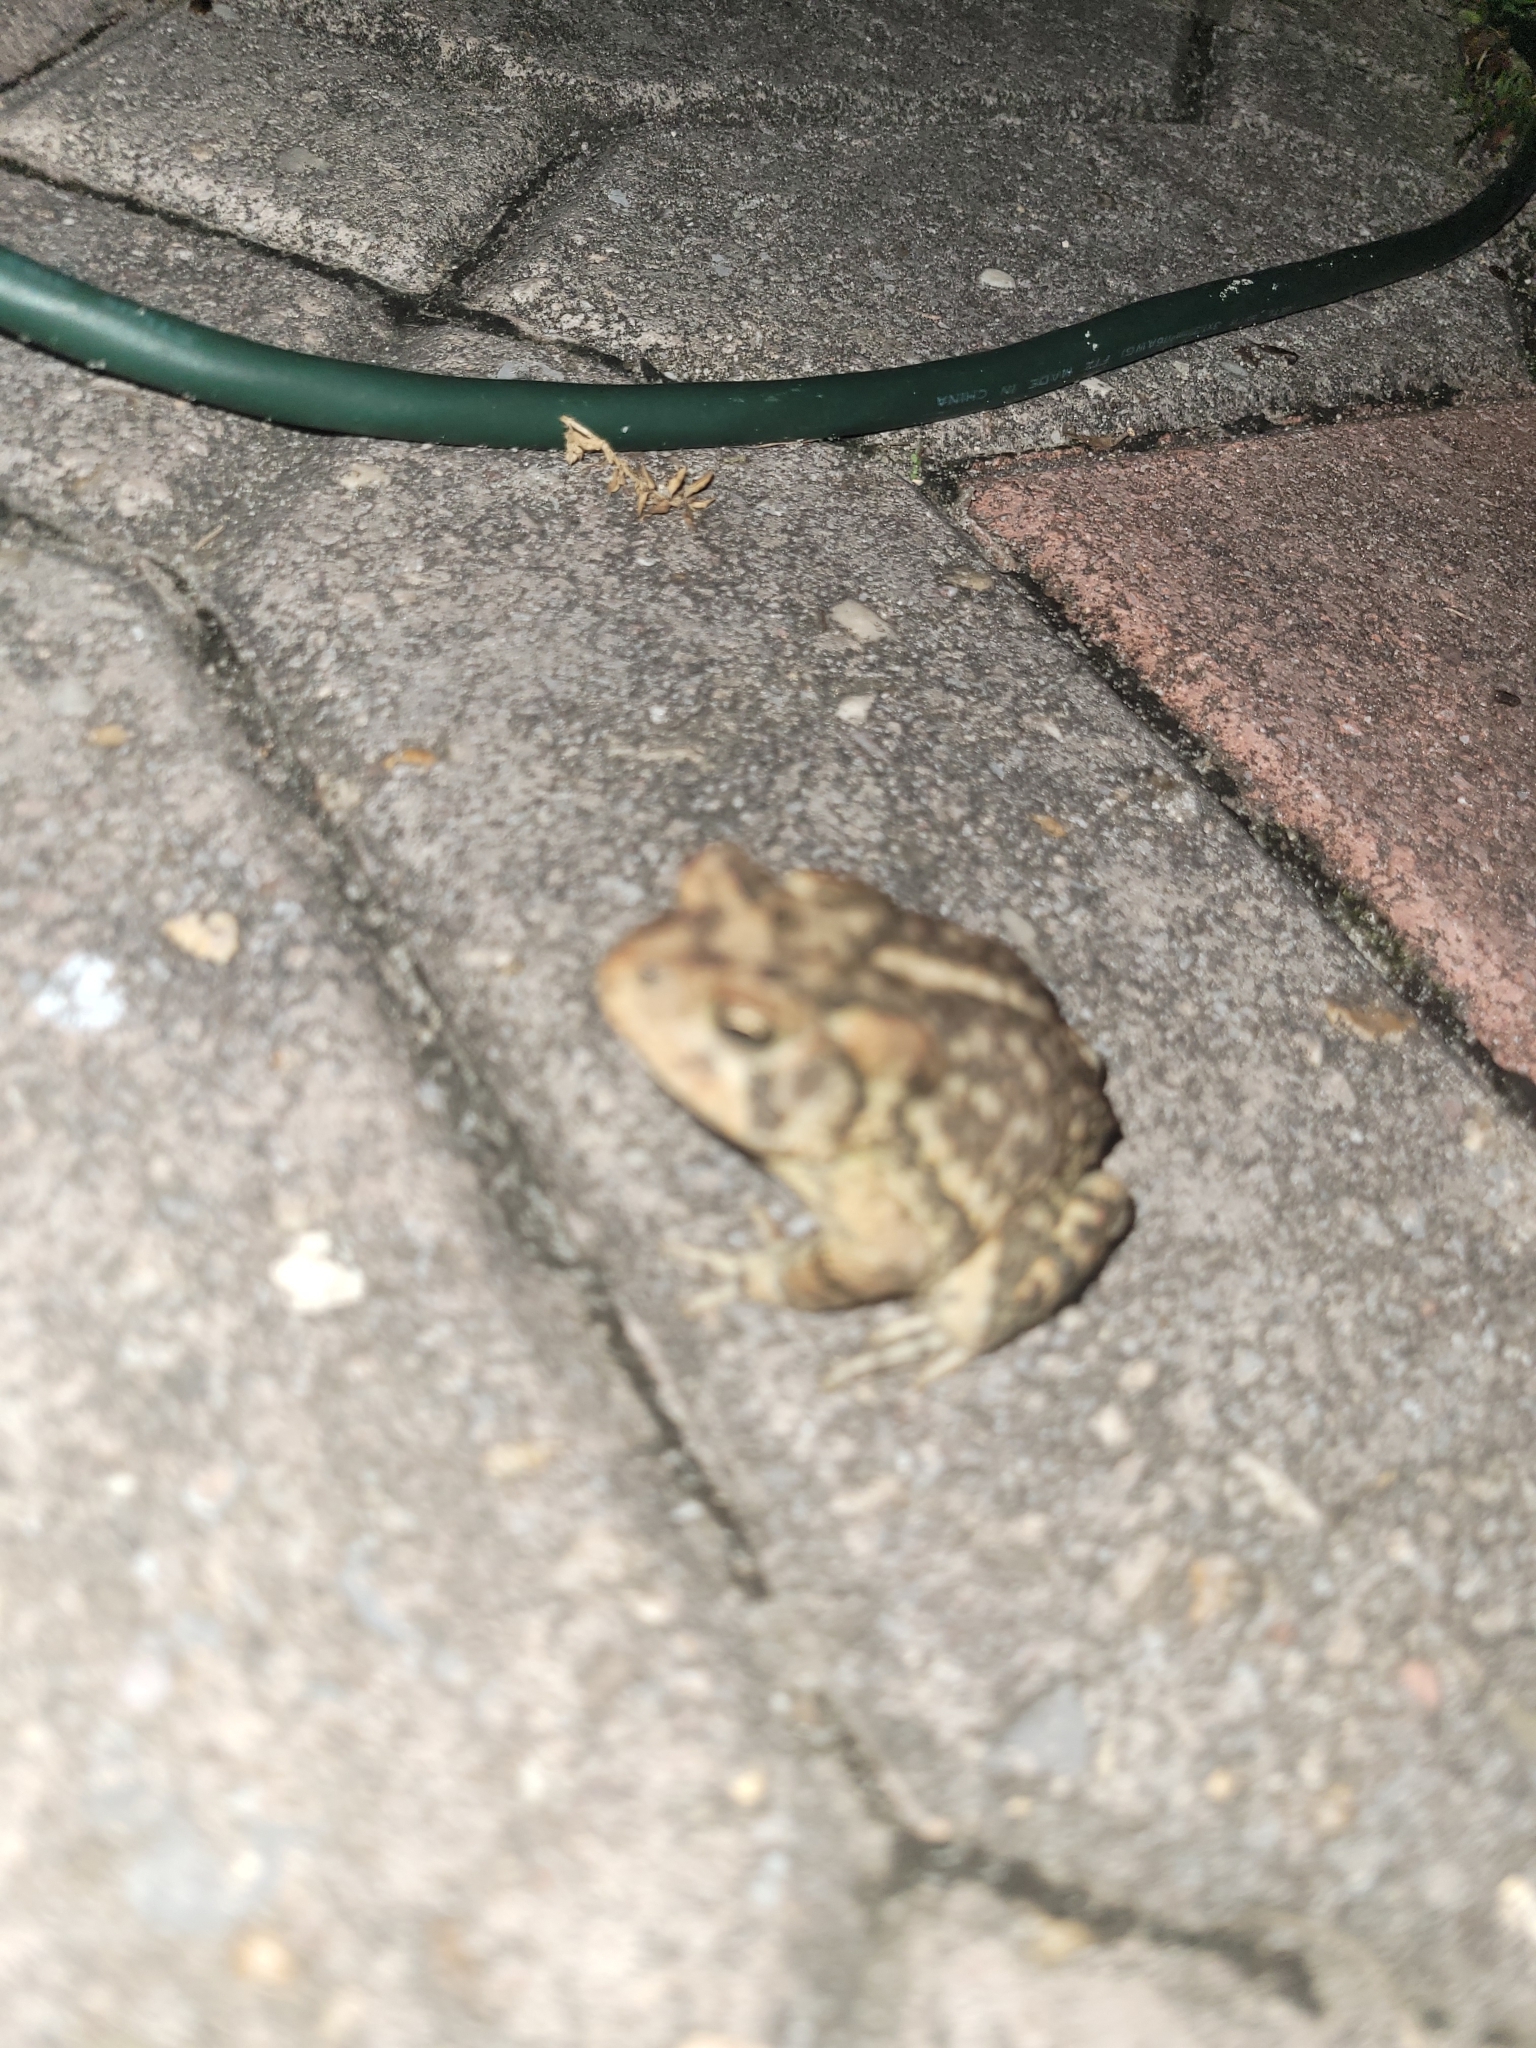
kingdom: Animalia
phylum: Chordata
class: Amphibia
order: Anura
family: Bufonidae
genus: Anaxyrus
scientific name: Anaxyrus terrestris
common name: Southern toad
